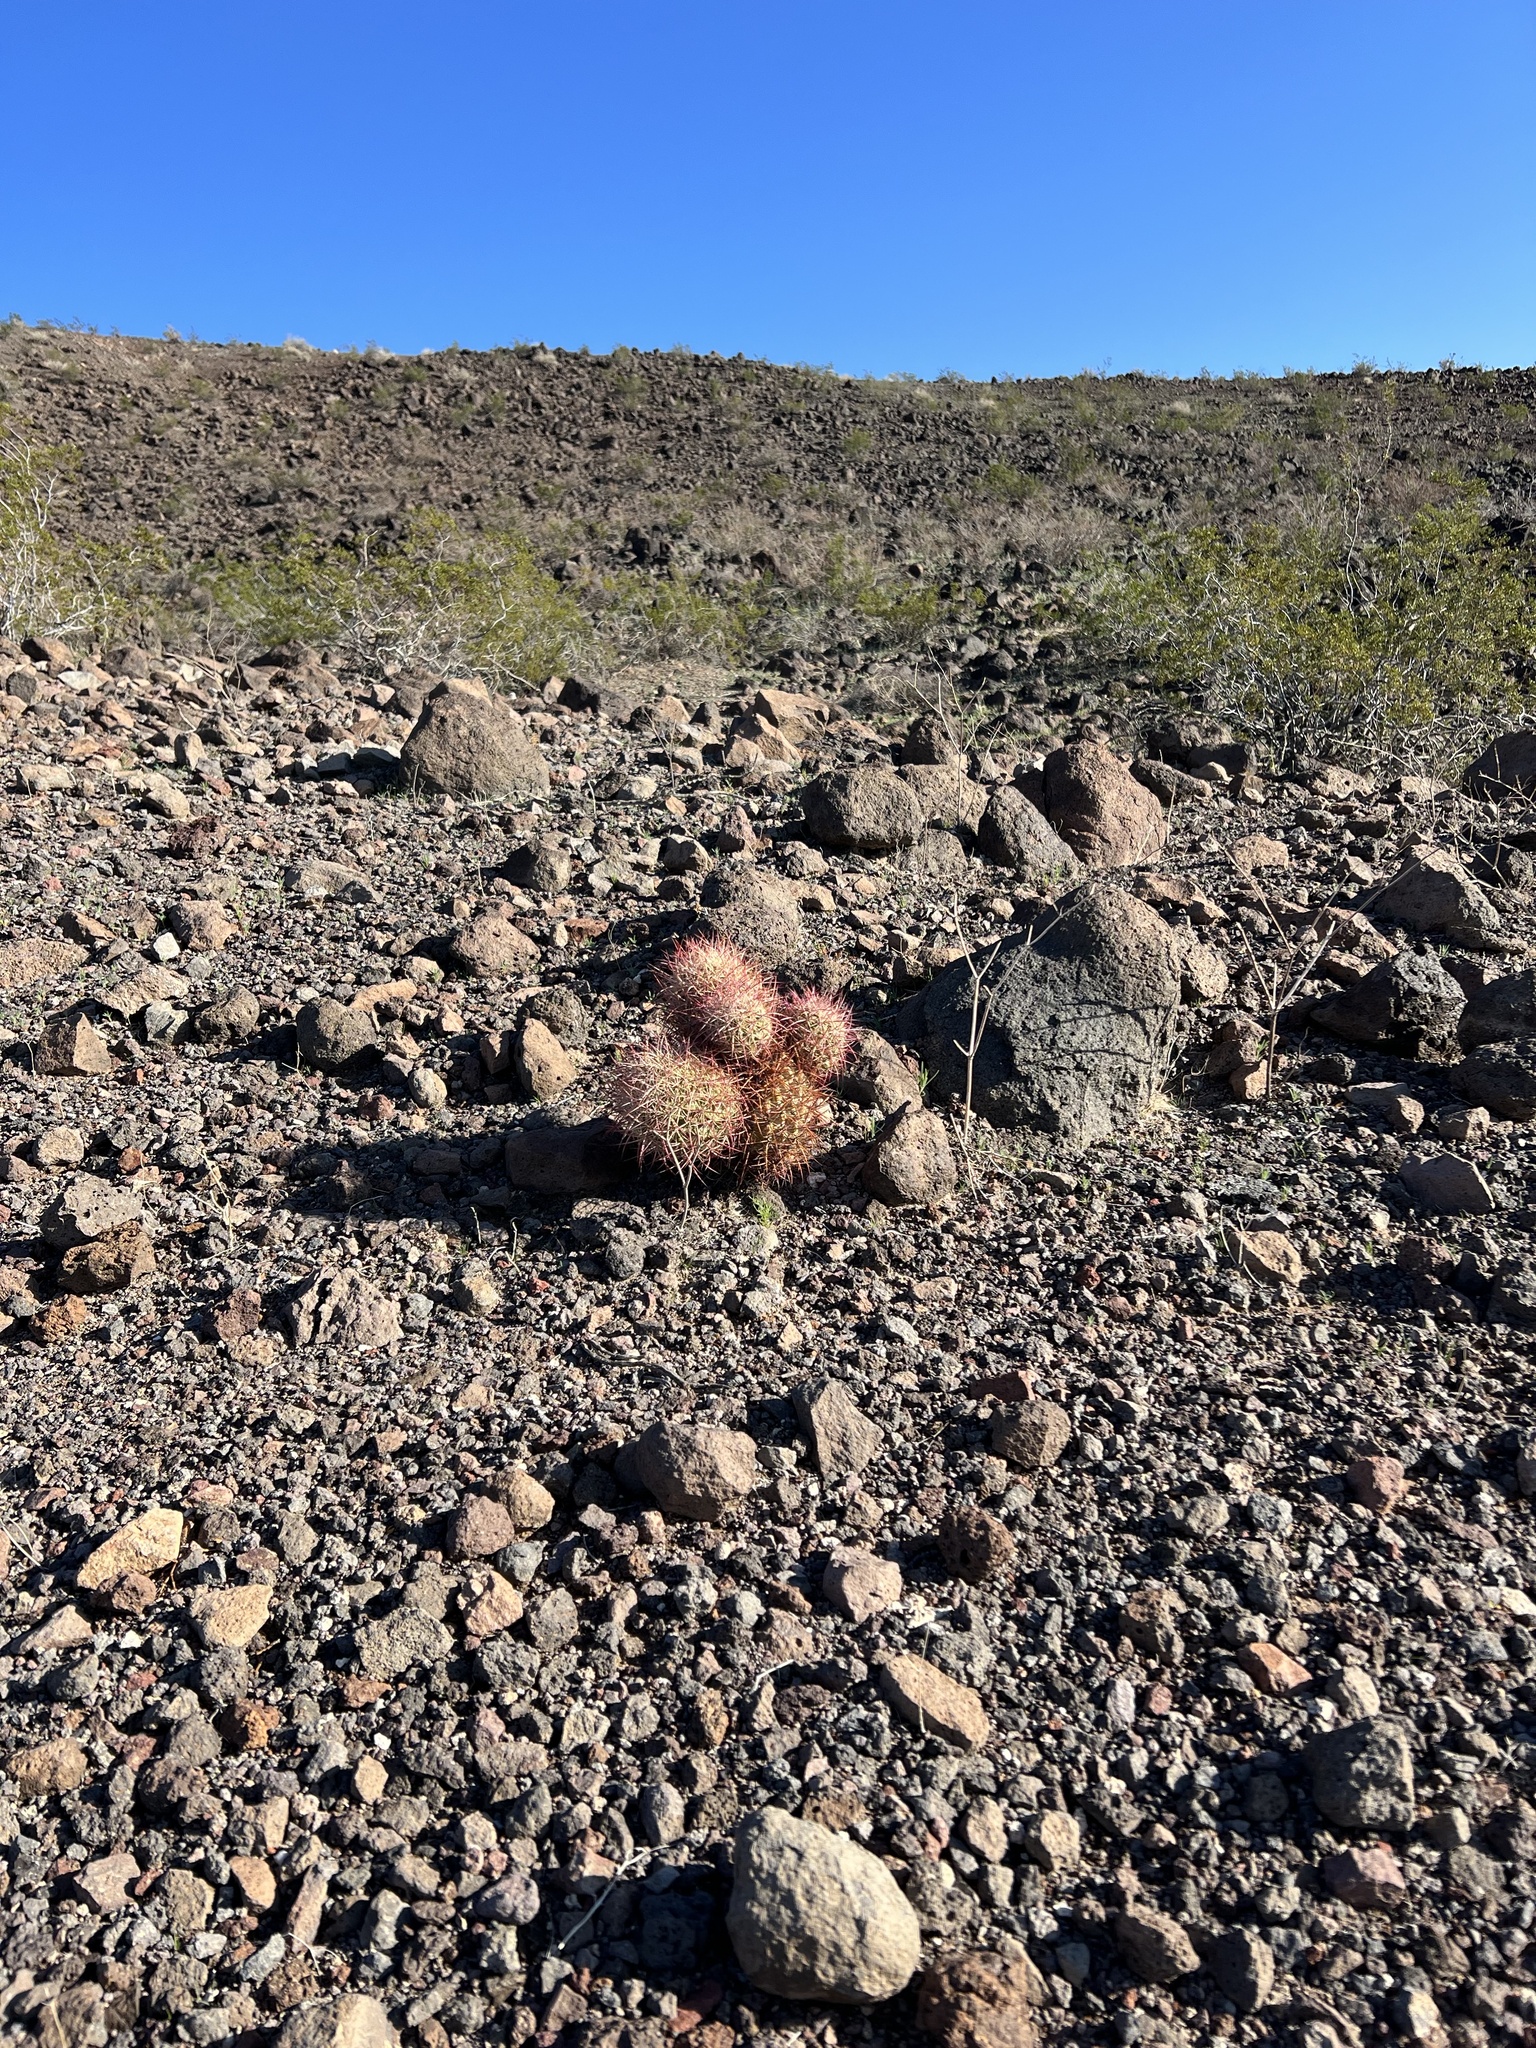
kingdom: Plantae
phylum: Tracheophyta
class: Magnoliopsida
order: Caryophyllales
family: Cactaceae
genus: Sclerocactus
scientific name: Sclerocactus johnsonii
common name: Eight-spine fishhook cactus
